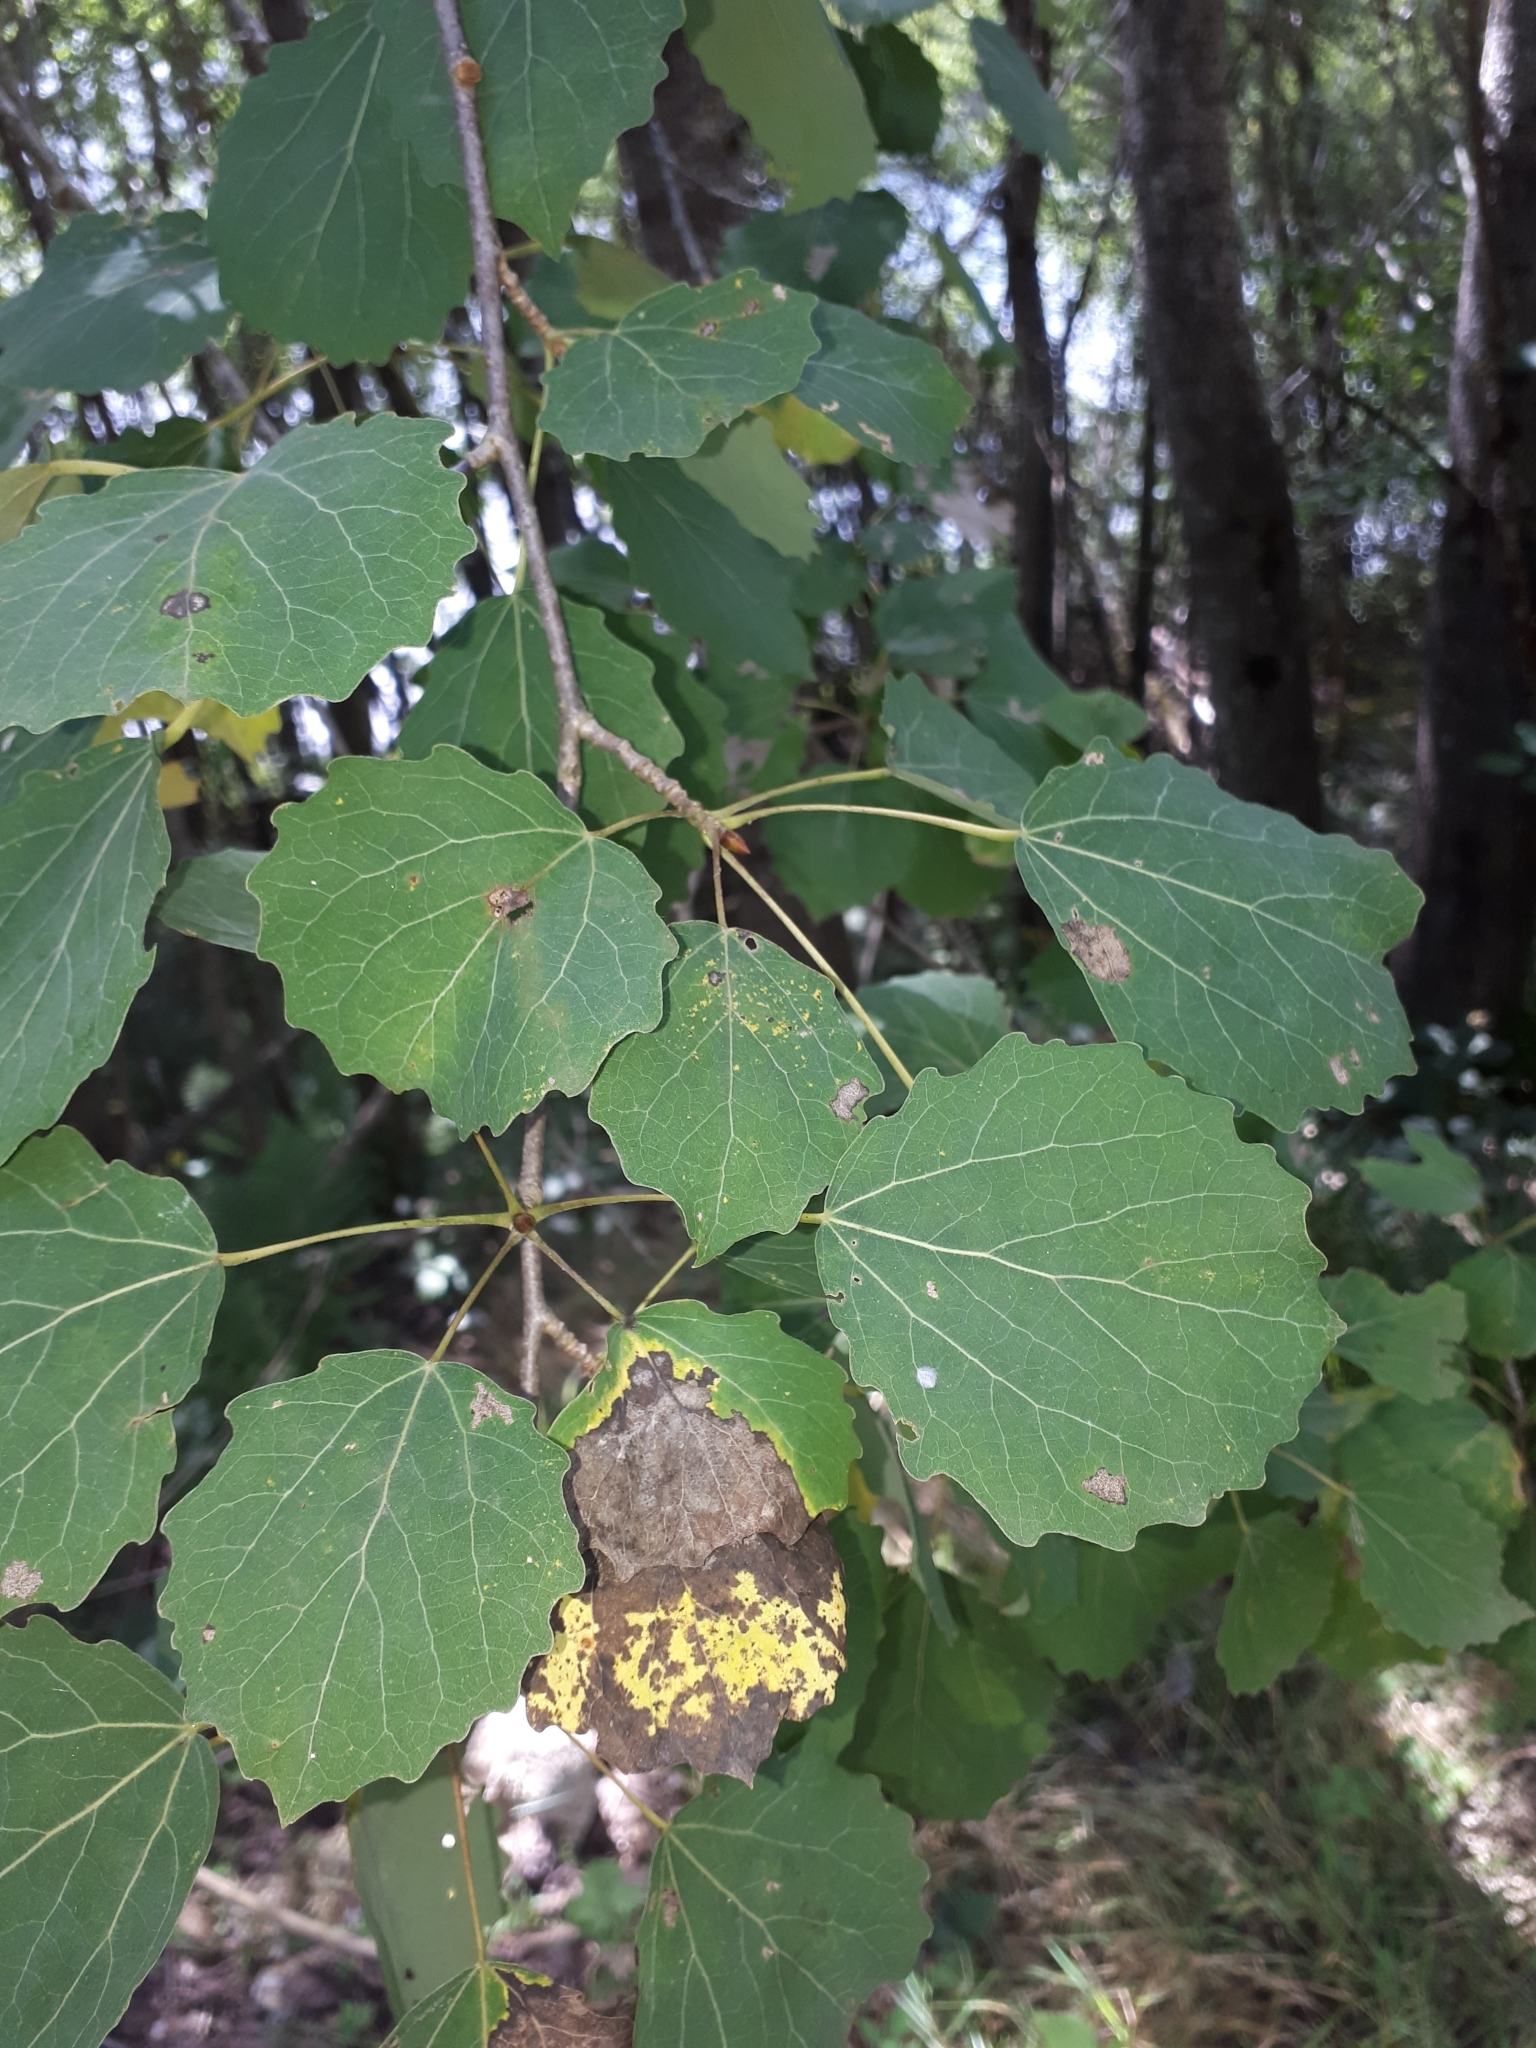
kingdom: Plantae
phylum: Tracheophyta
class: Magnoliopsida
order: Malpighiales
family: Salicaceae
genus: Populus
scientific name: Populus tremula
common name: European aspen
